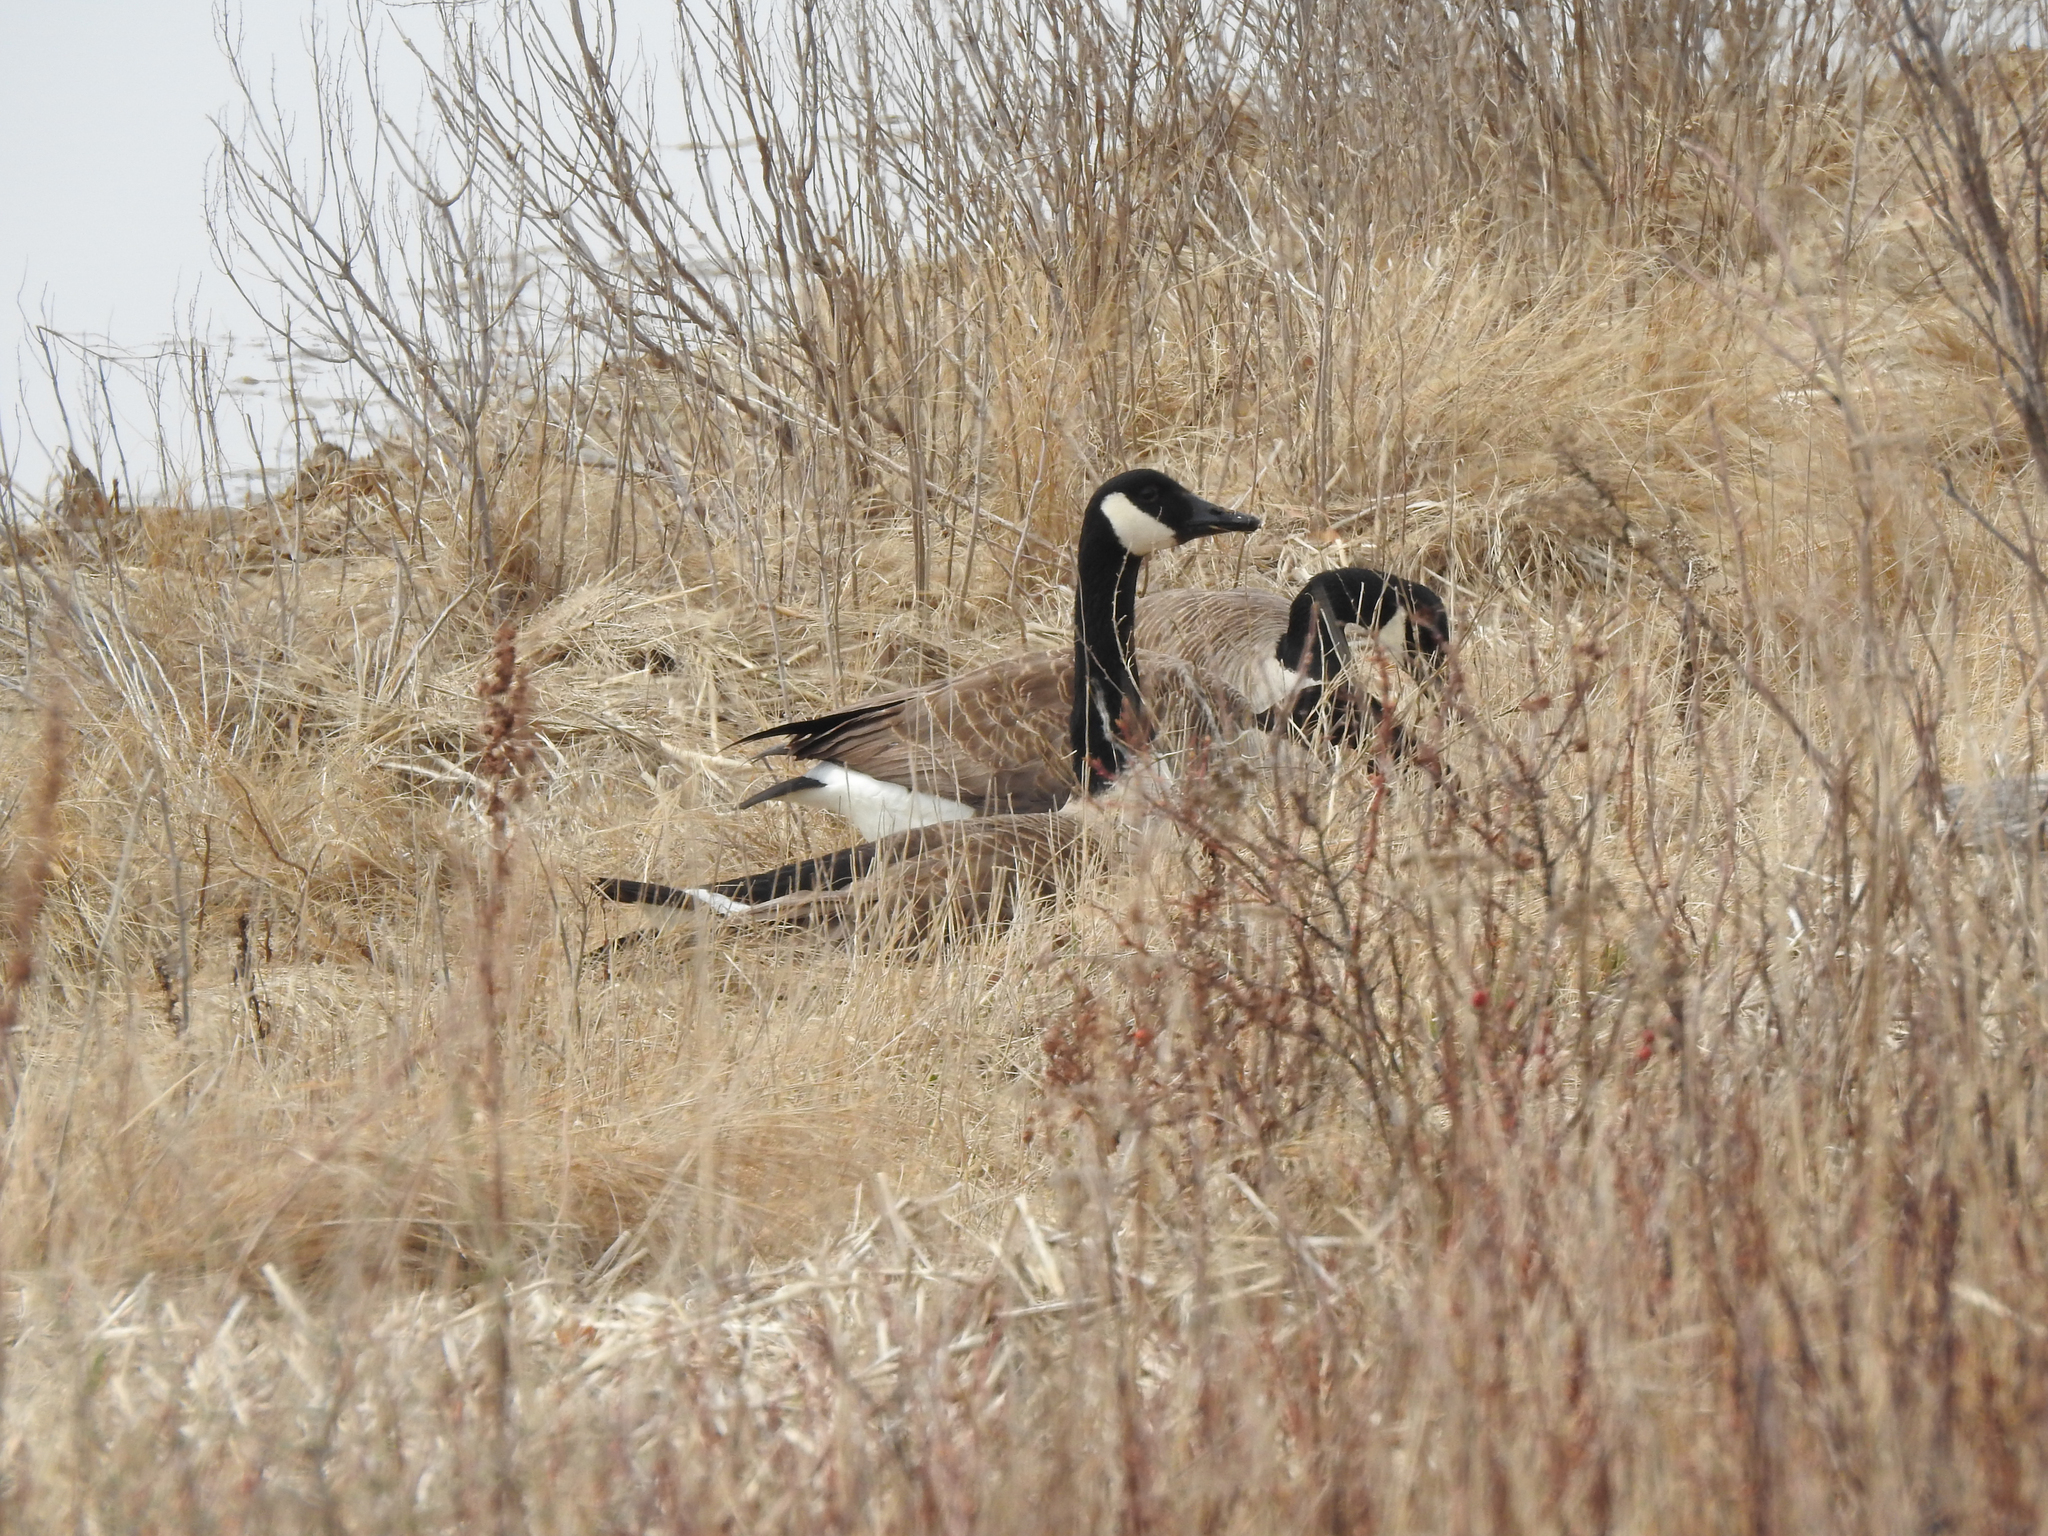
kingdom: Animalia
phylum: Chordata
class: Aves
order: Anseriformes
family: Anatidae
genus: Branta
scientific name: Branta canadensis
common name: Canada goose
